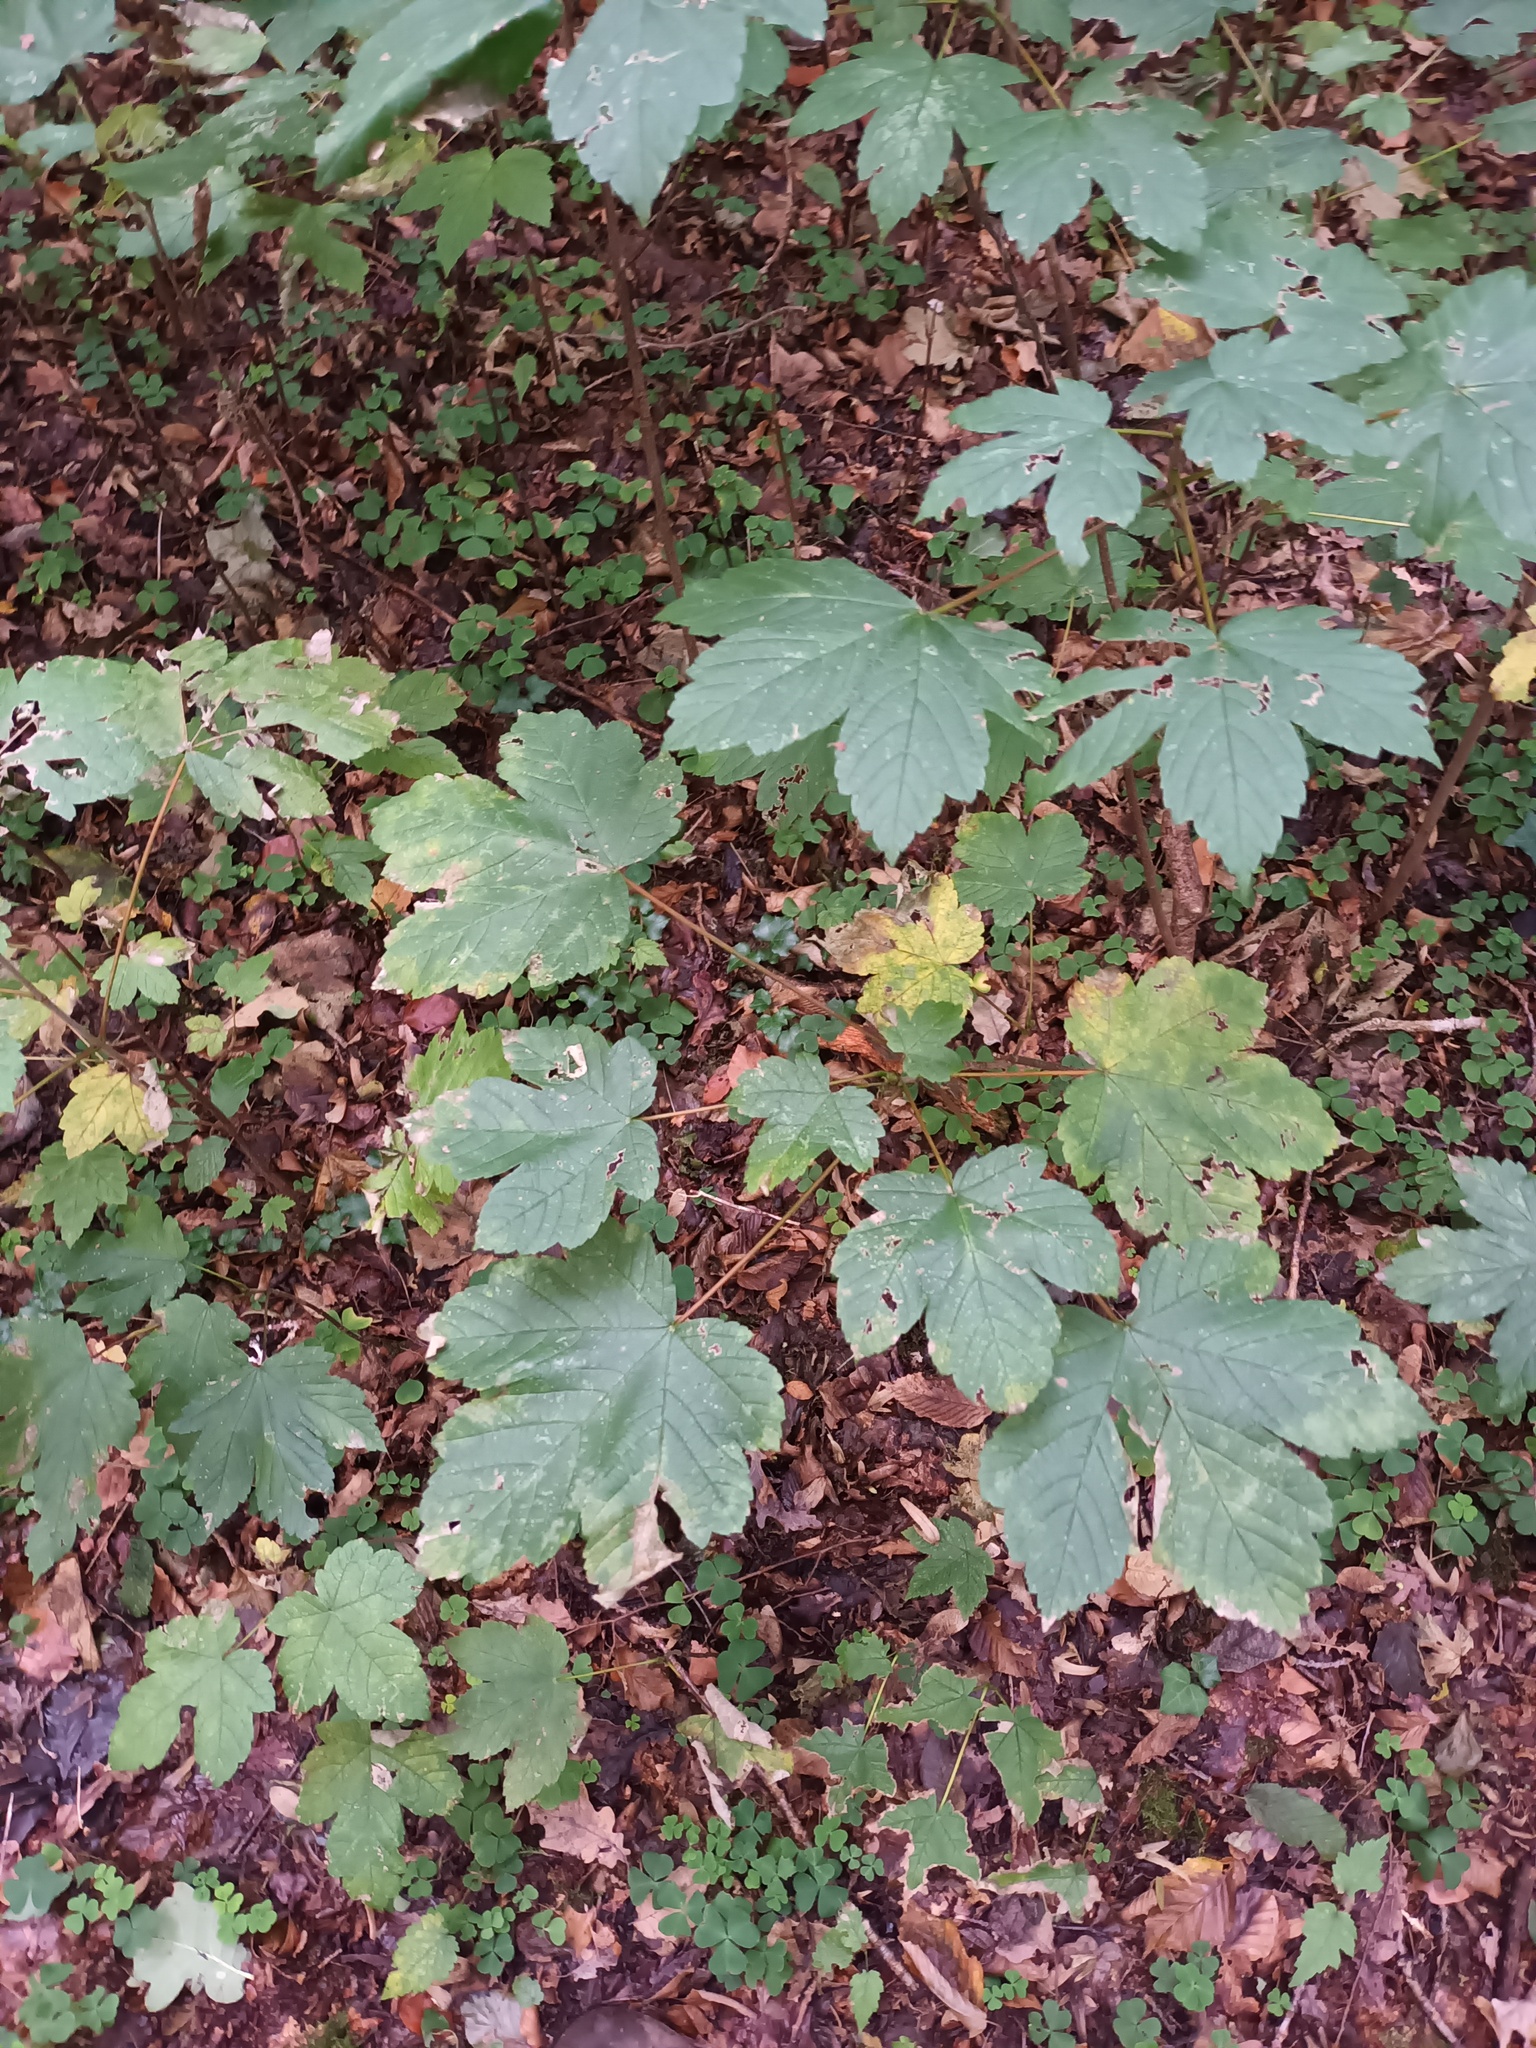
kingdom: Plantae
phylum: Tracheophyta
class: Magnoliopsida
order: Sapindales
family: Sapindaceae
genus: Acer
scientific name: Acer pseudoplatanus
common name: Sycamore
